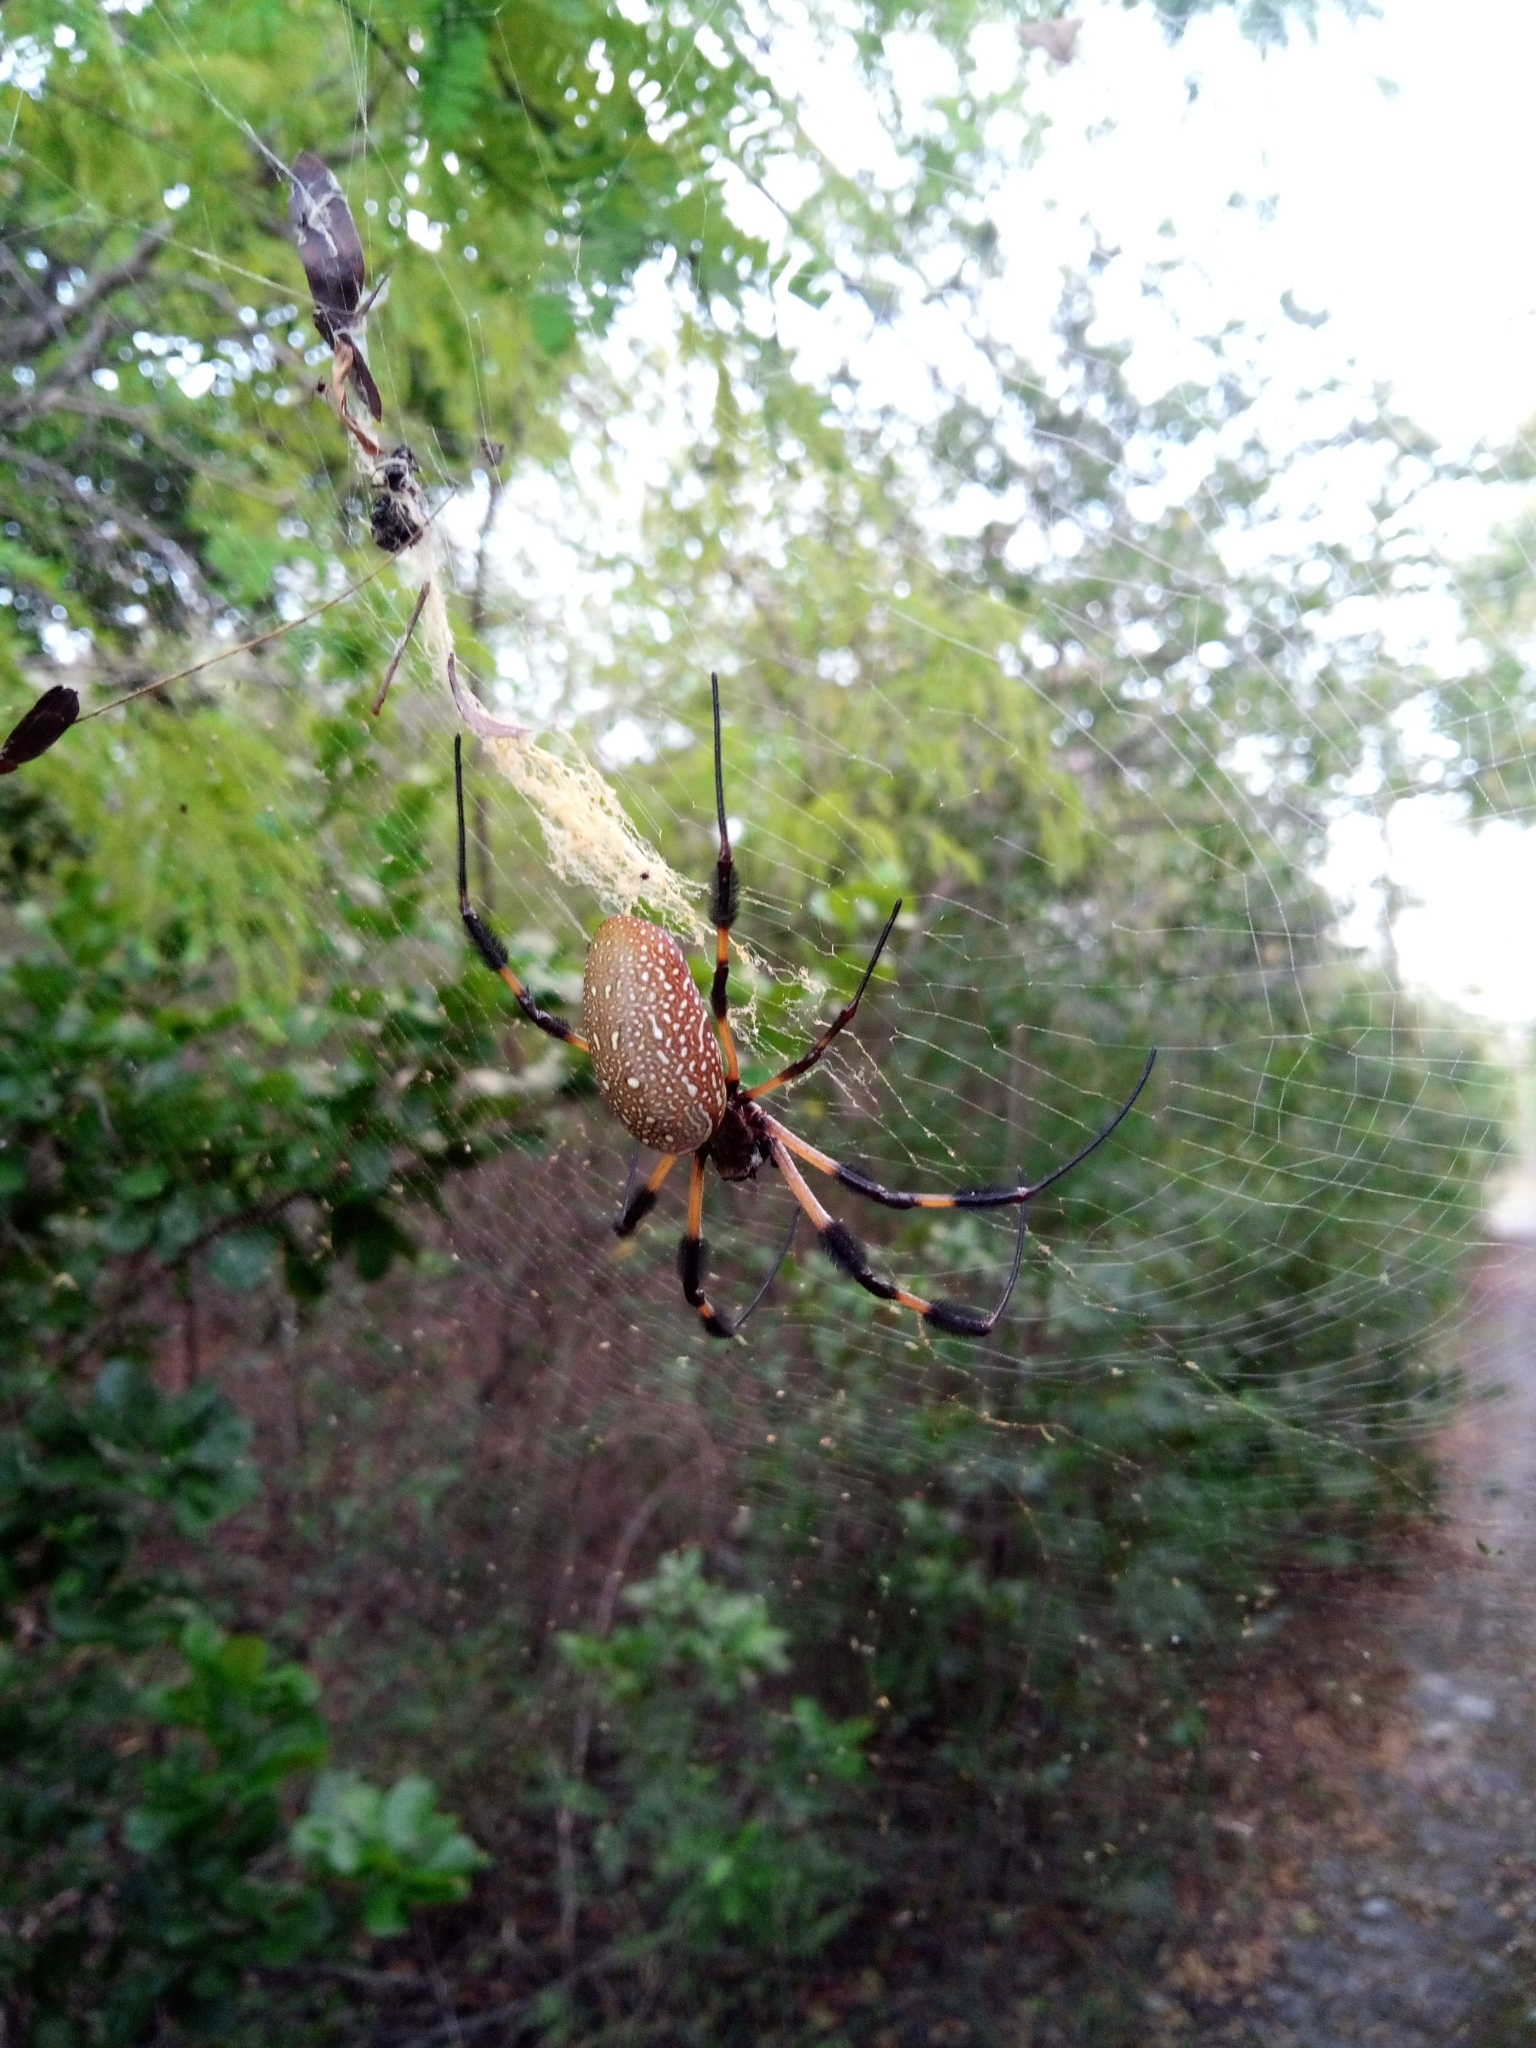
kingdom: Animalia
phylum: Arthropoda
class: Arachnida
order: Araneae
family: Araneidae
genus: Trichonephila
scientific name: Trichonephila clavipes
